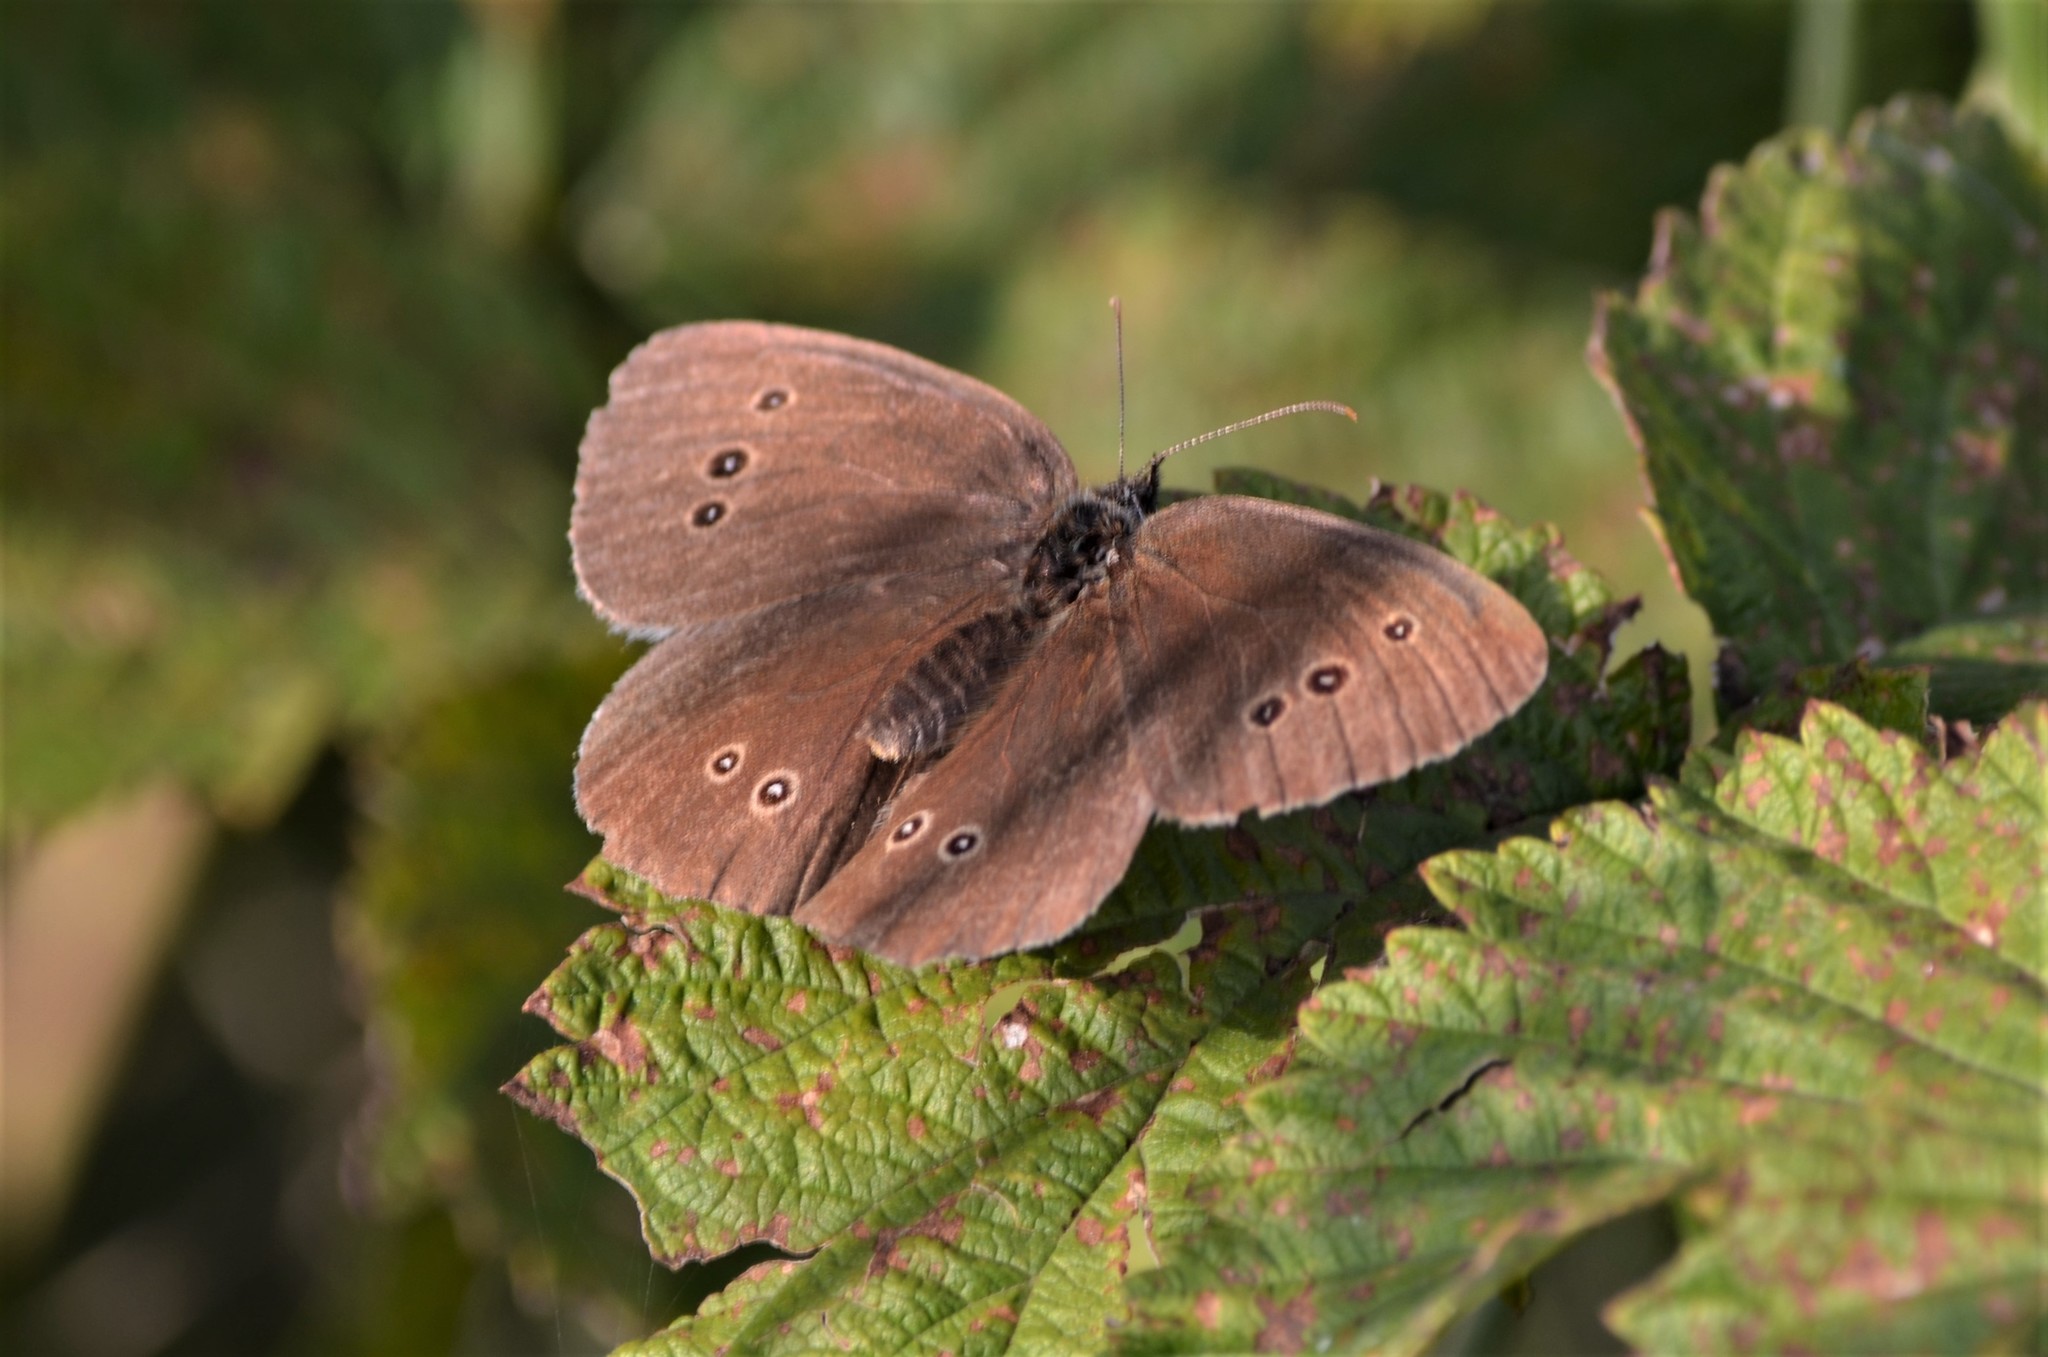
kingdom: Animalia
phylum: Arthropoda
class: Insecta
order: Lepidoptera
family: Nymphalidae
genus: Aphantopus
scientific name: Aphantopus hyperantus
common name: Ringlet
